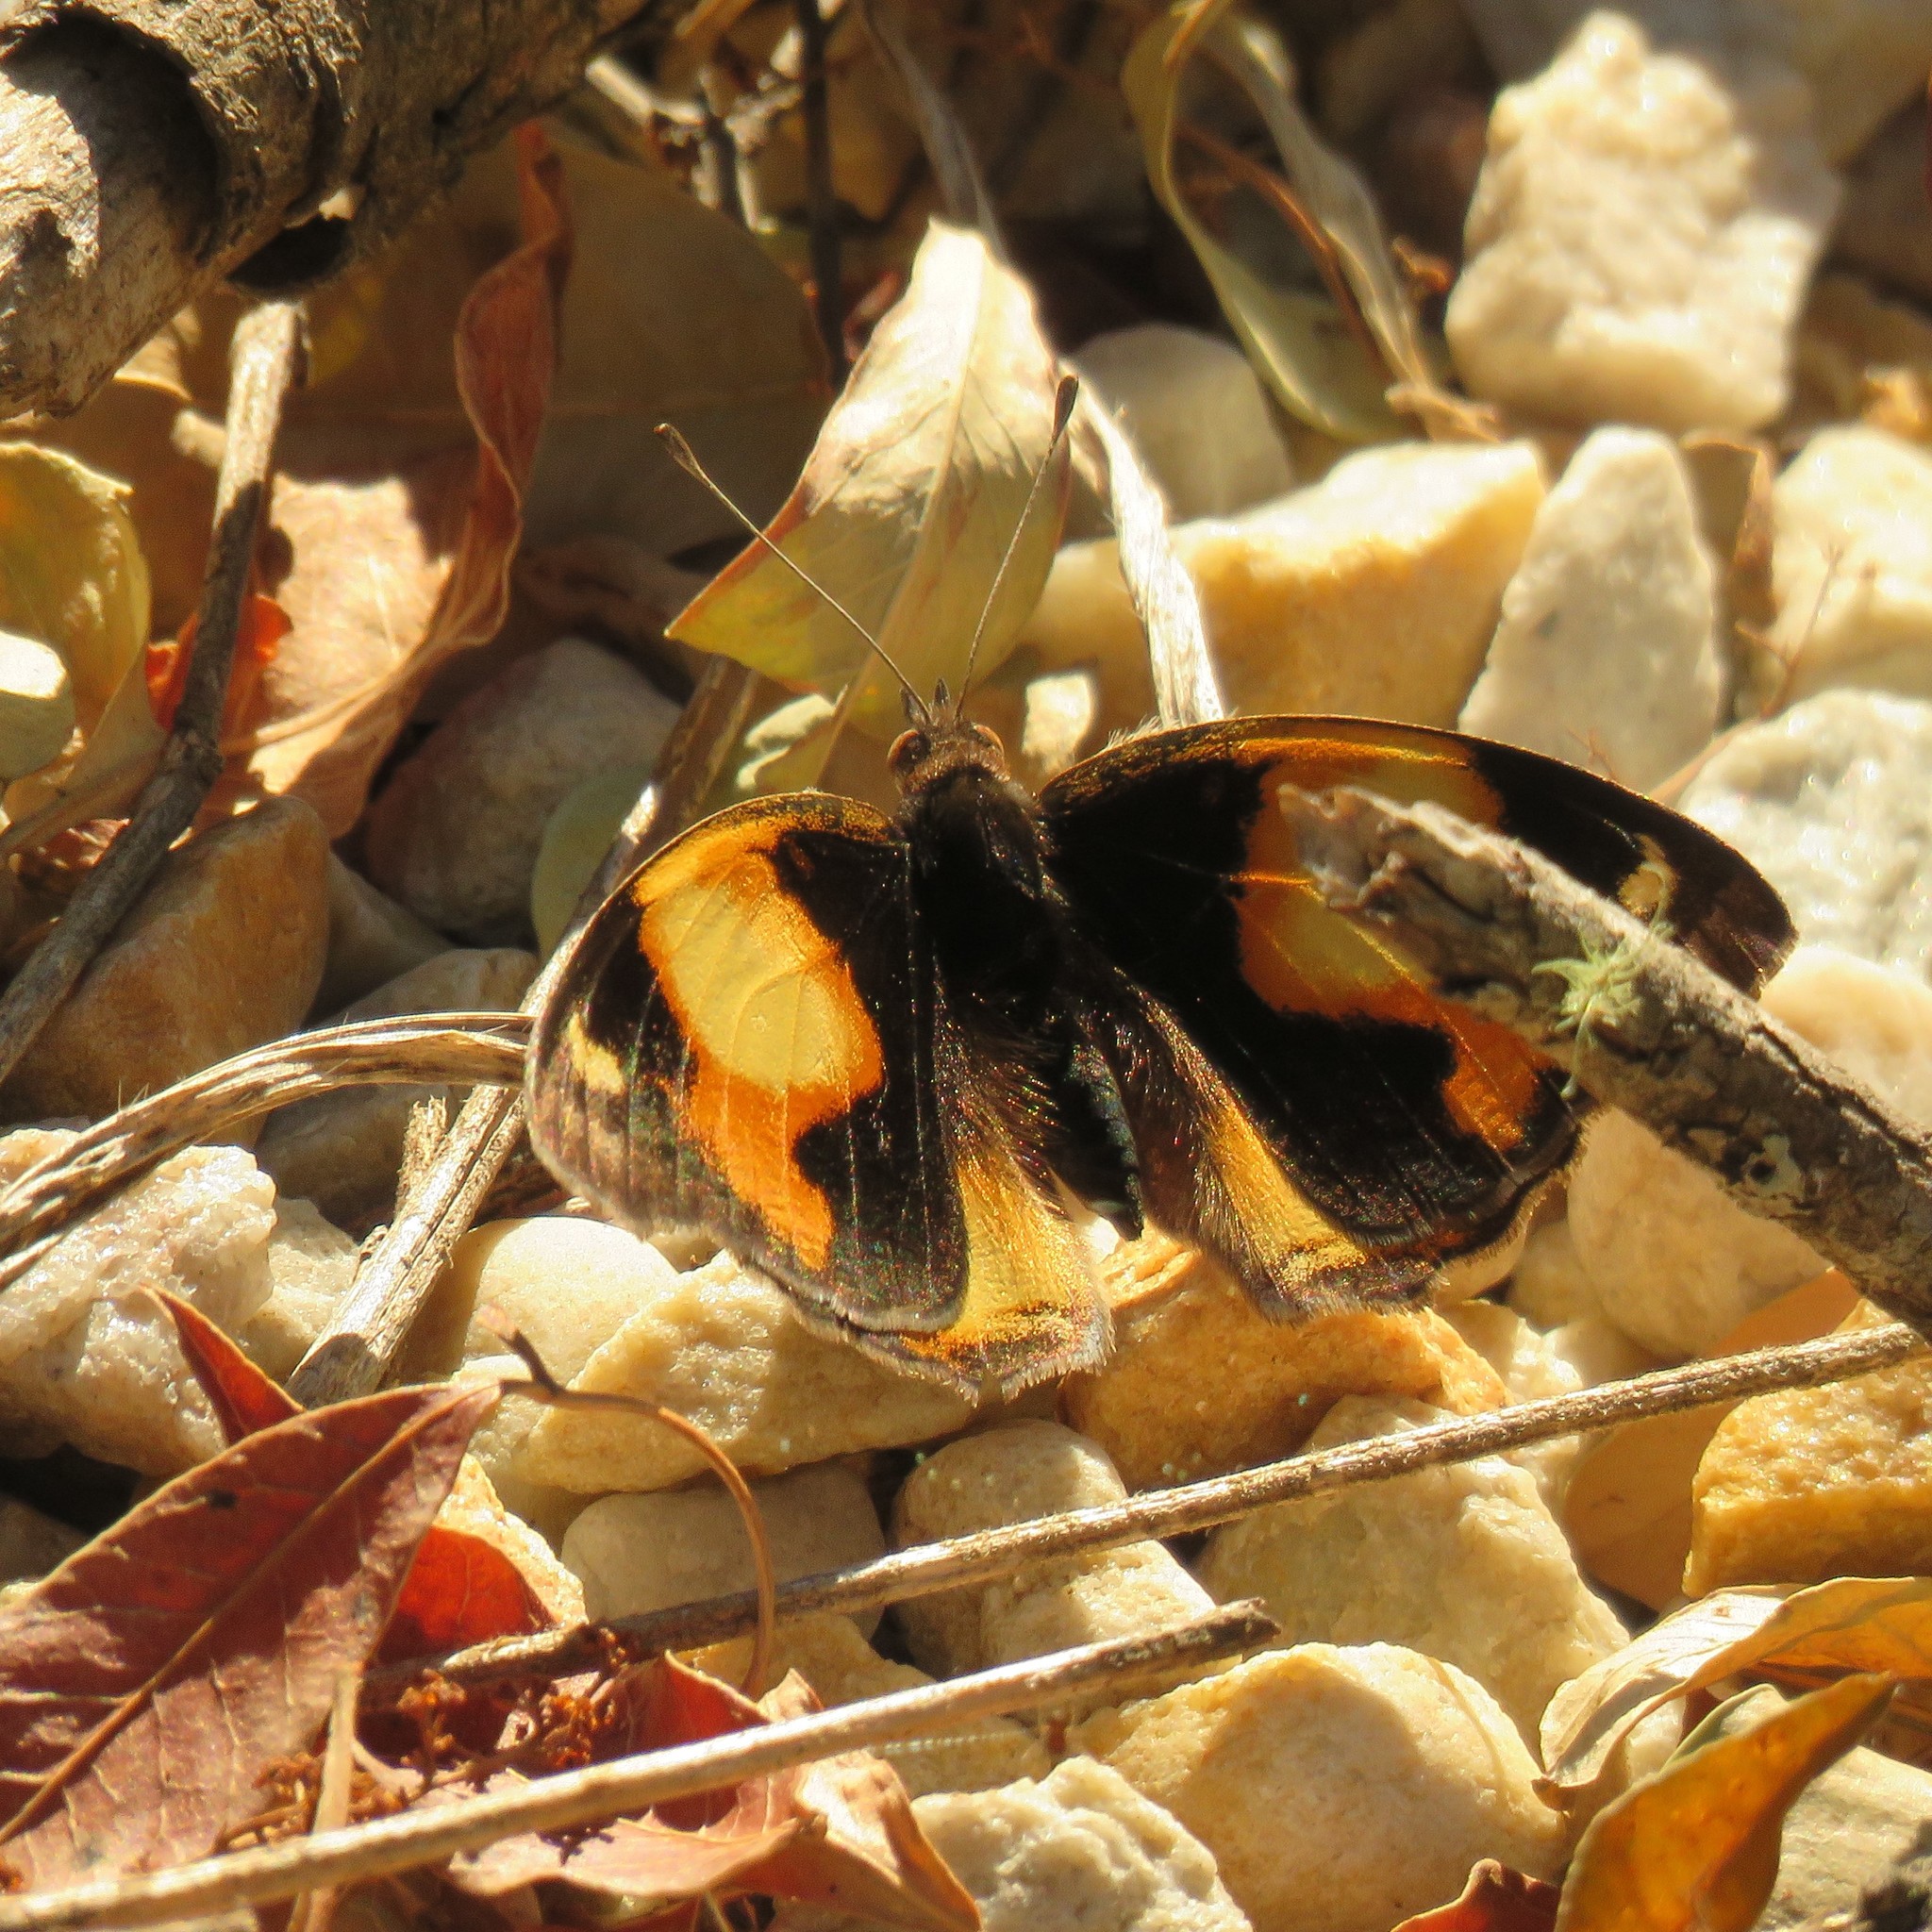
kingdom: Animalia
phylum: Arthropoda
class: Insecta
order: Lepidoptera
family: Nymphalidae
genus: Junonia
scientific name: Junonia hierta
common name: Yellow pansy
